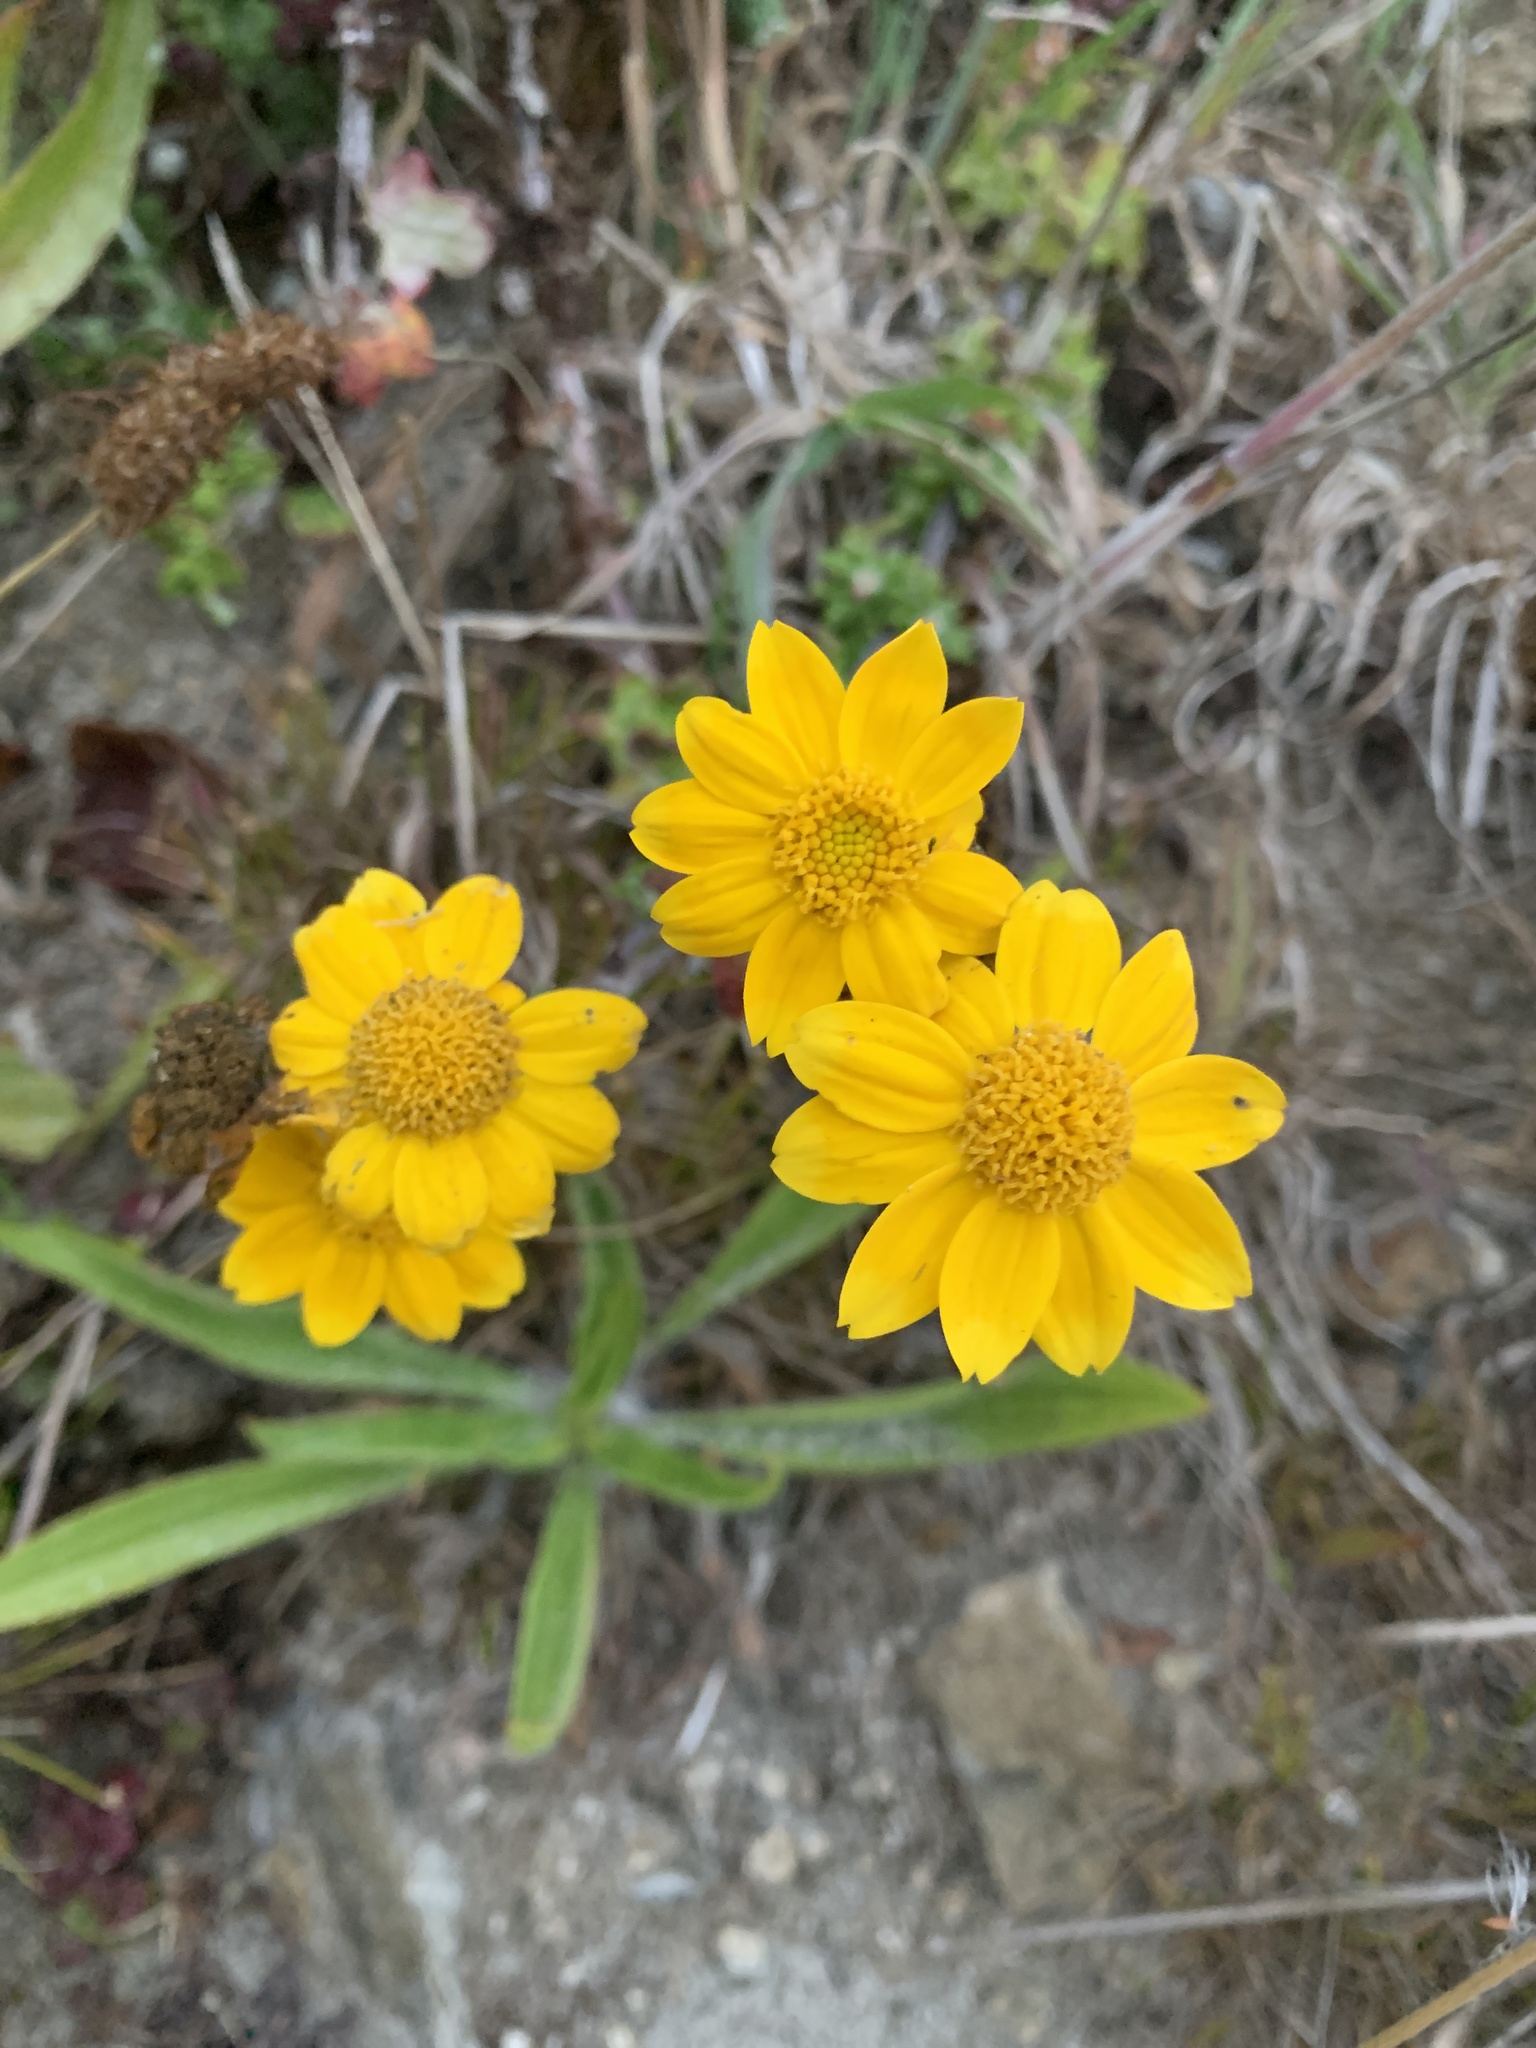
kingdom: Plantae
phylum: Tracheophyta
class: Magnoliopsida
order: Asterales
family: Asteraceae
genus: Eriophyllum
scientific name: Eriophyllum lanatum
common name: Common woolly-sunflower
